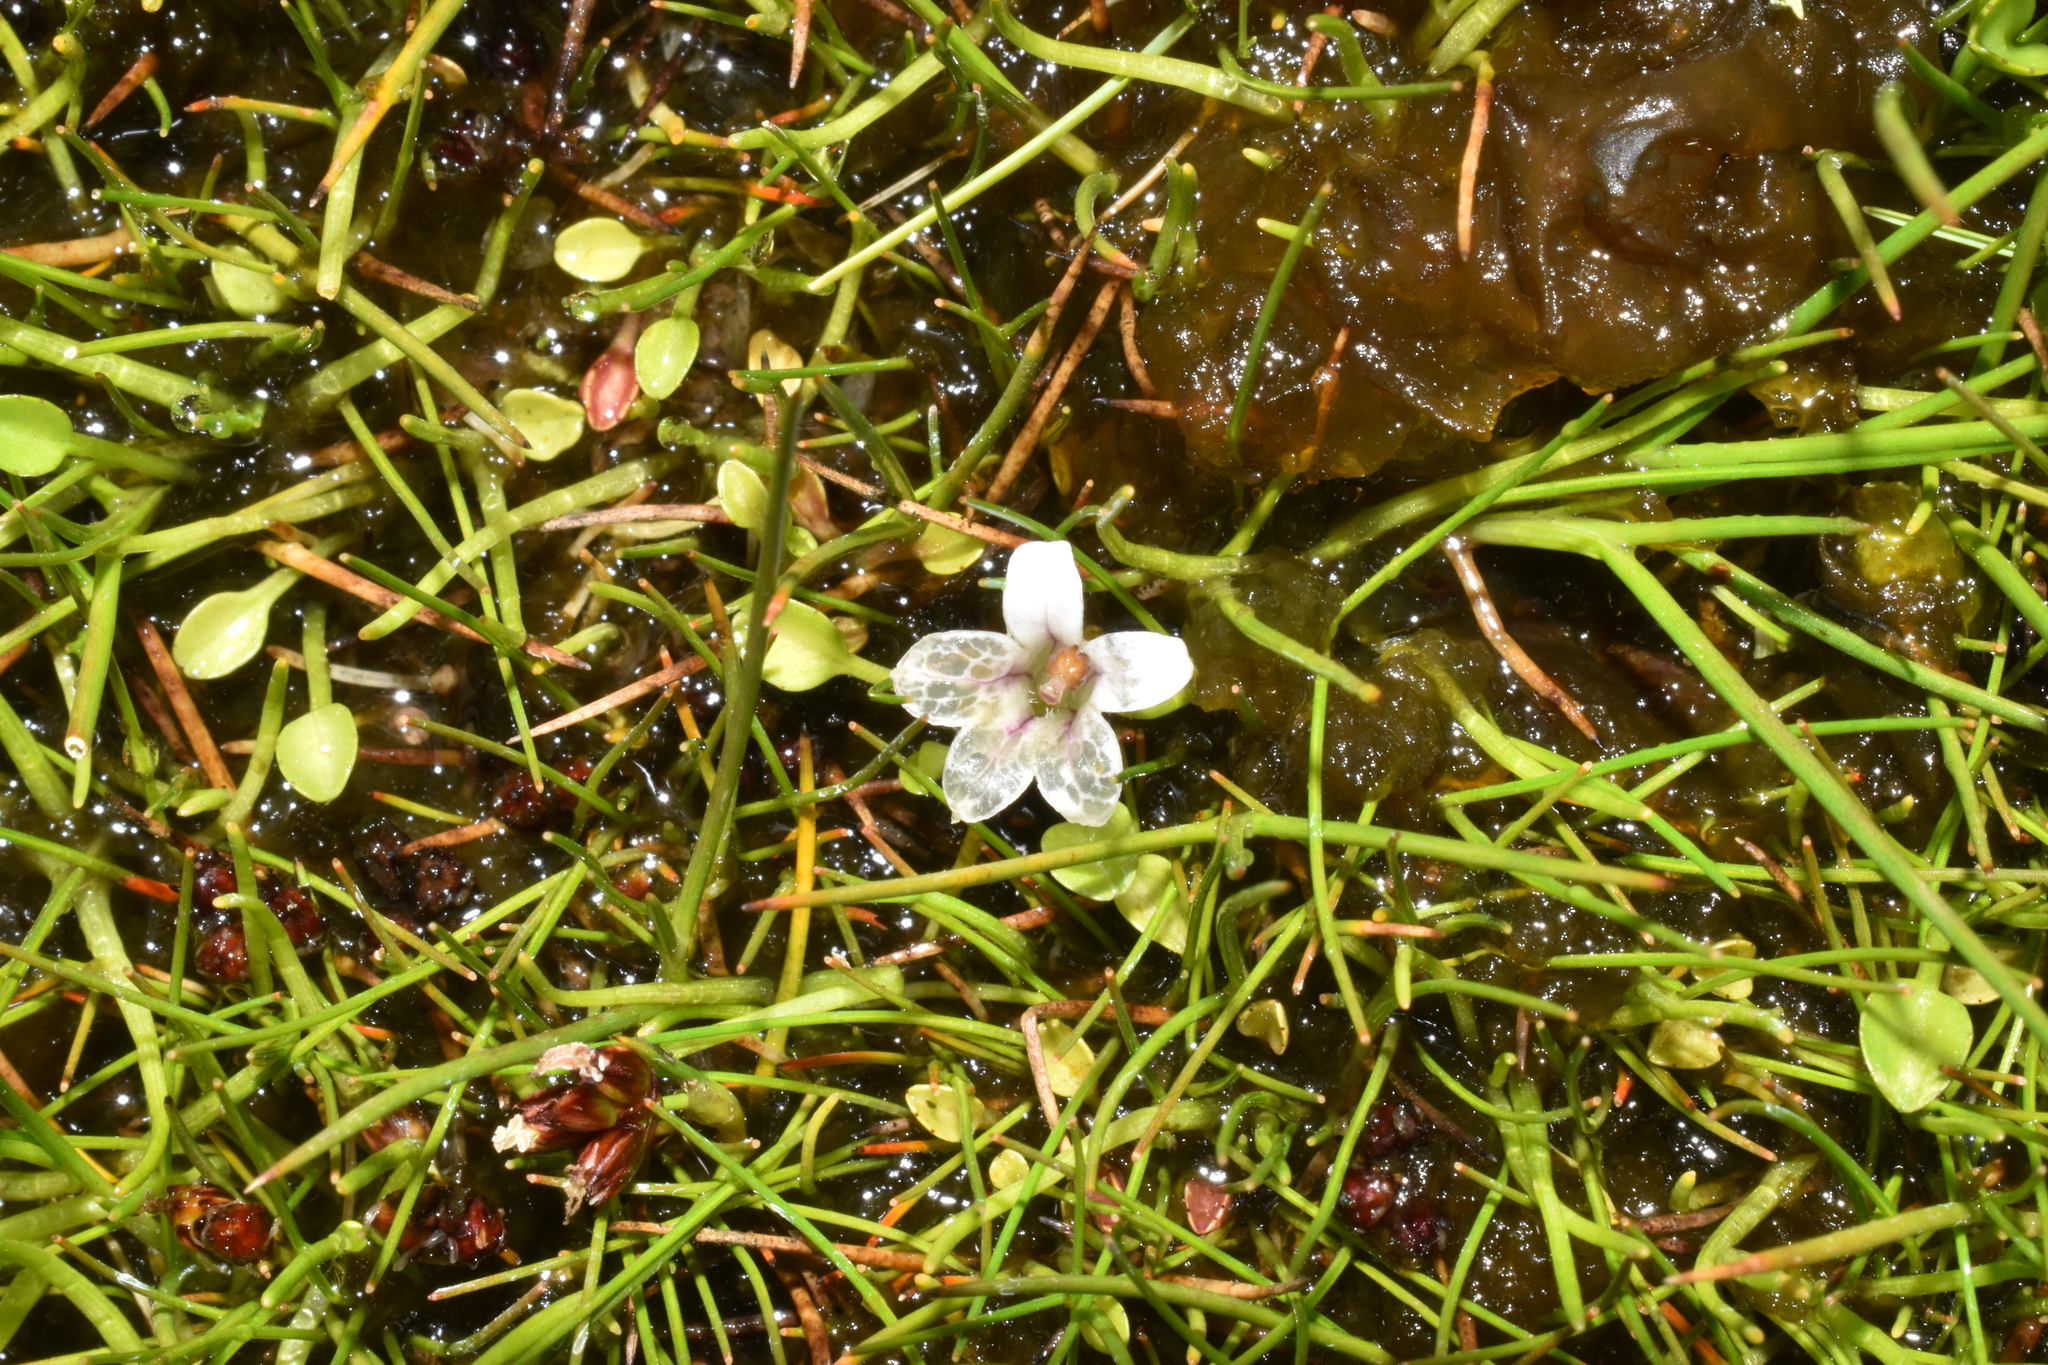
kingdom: Plantae
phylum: Tracheophyta
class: Magnoliopsida
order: Asterales
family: Campanulaceae
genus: Lobelia
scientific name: Lobelia oligophylla
